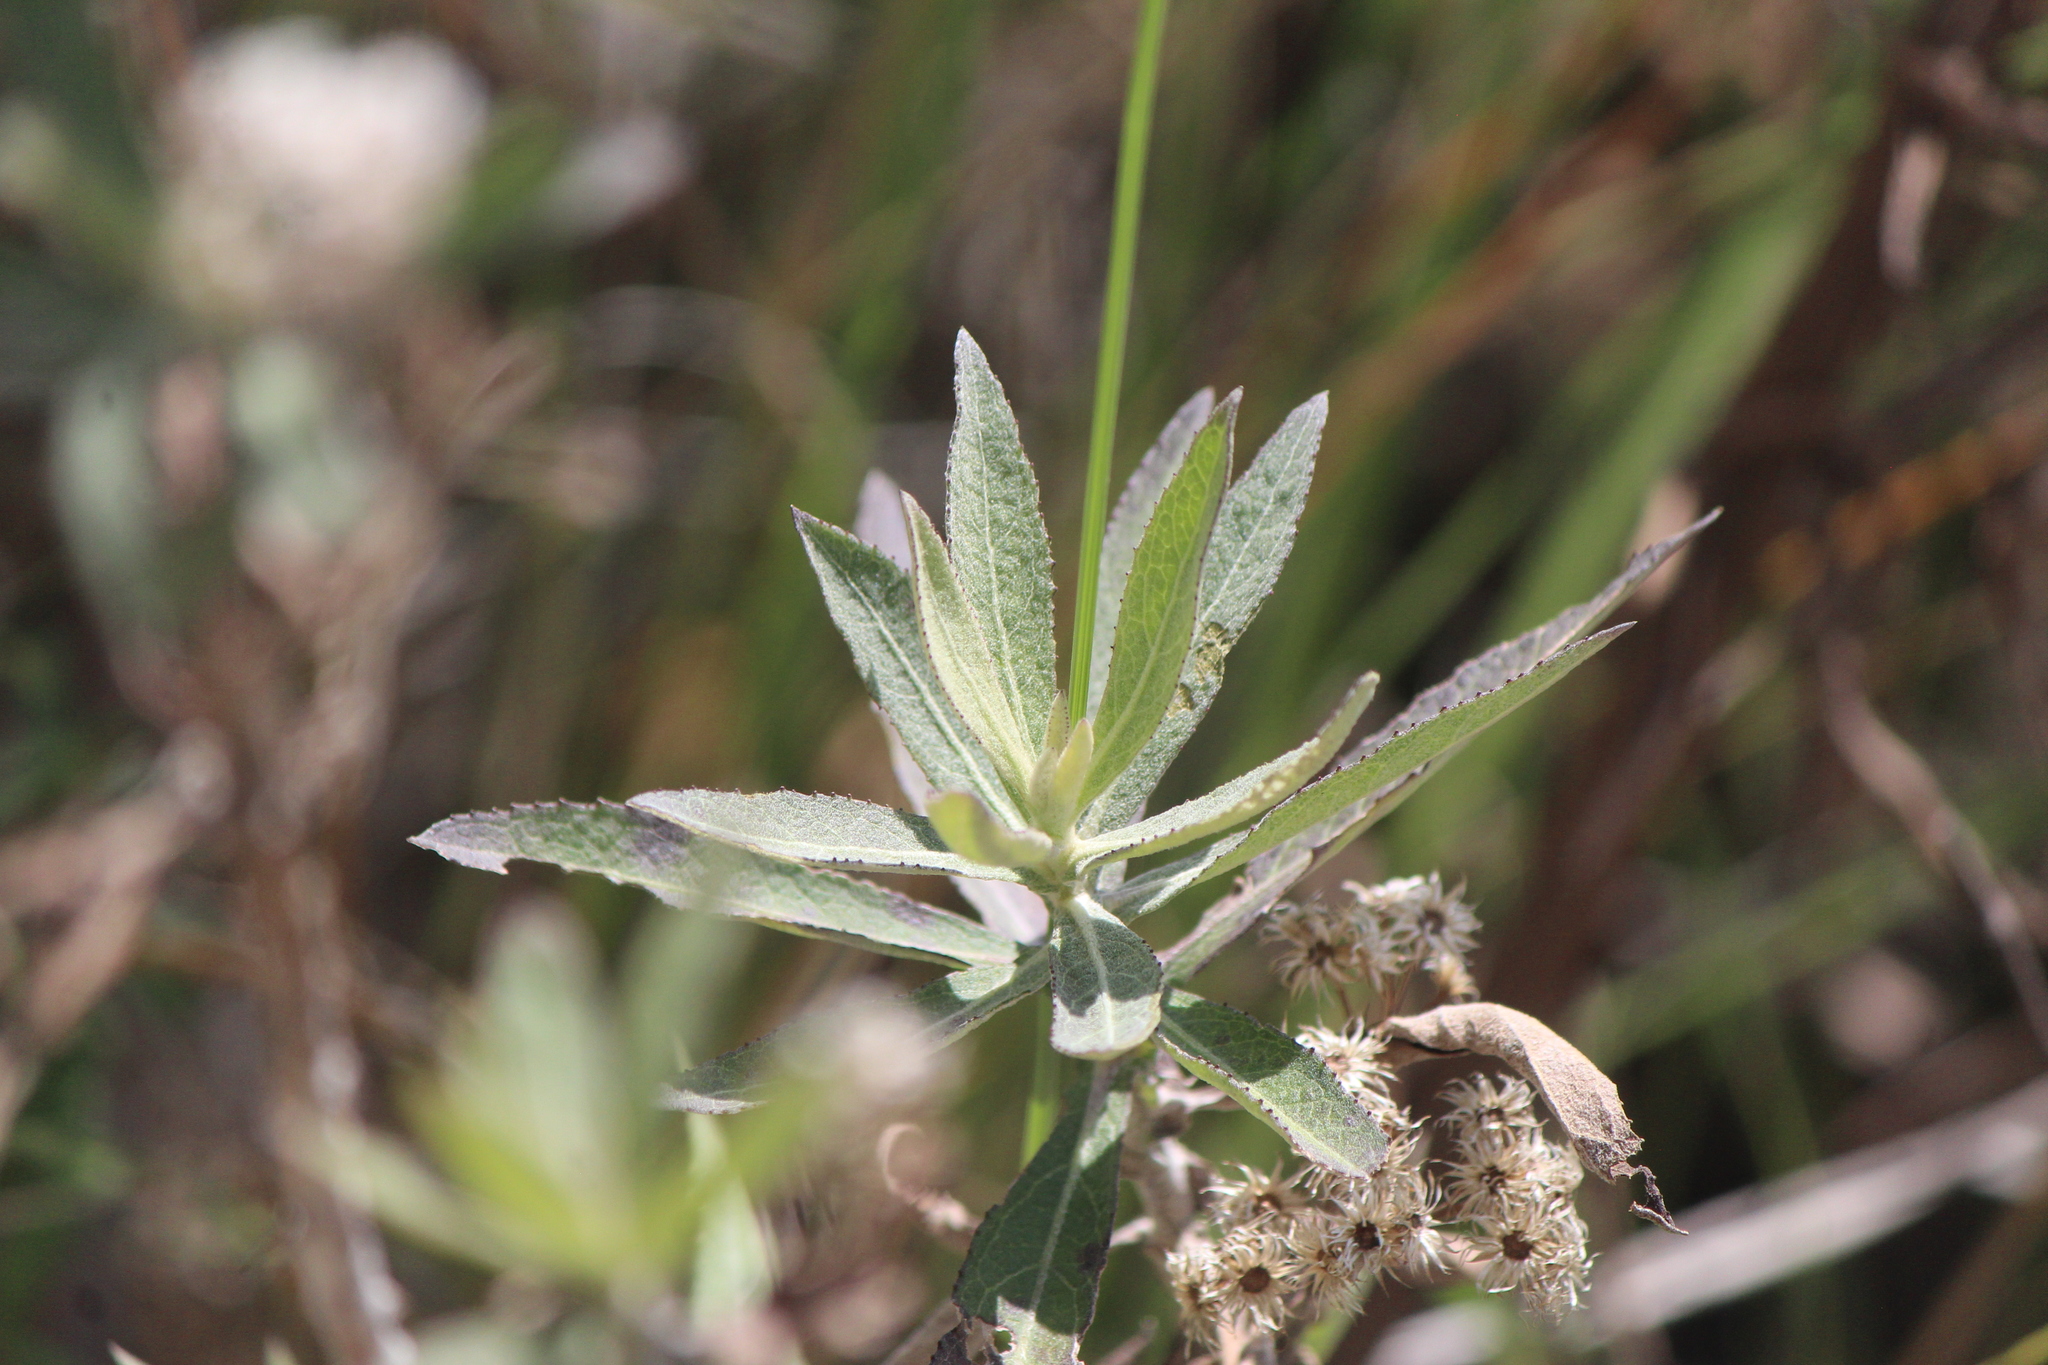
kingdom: Plantae
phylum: Tracheophyta
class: Magnoliopsida
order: Asterales
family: Asteraceae
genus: Pluchea
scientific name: Pluchea salicifolia
